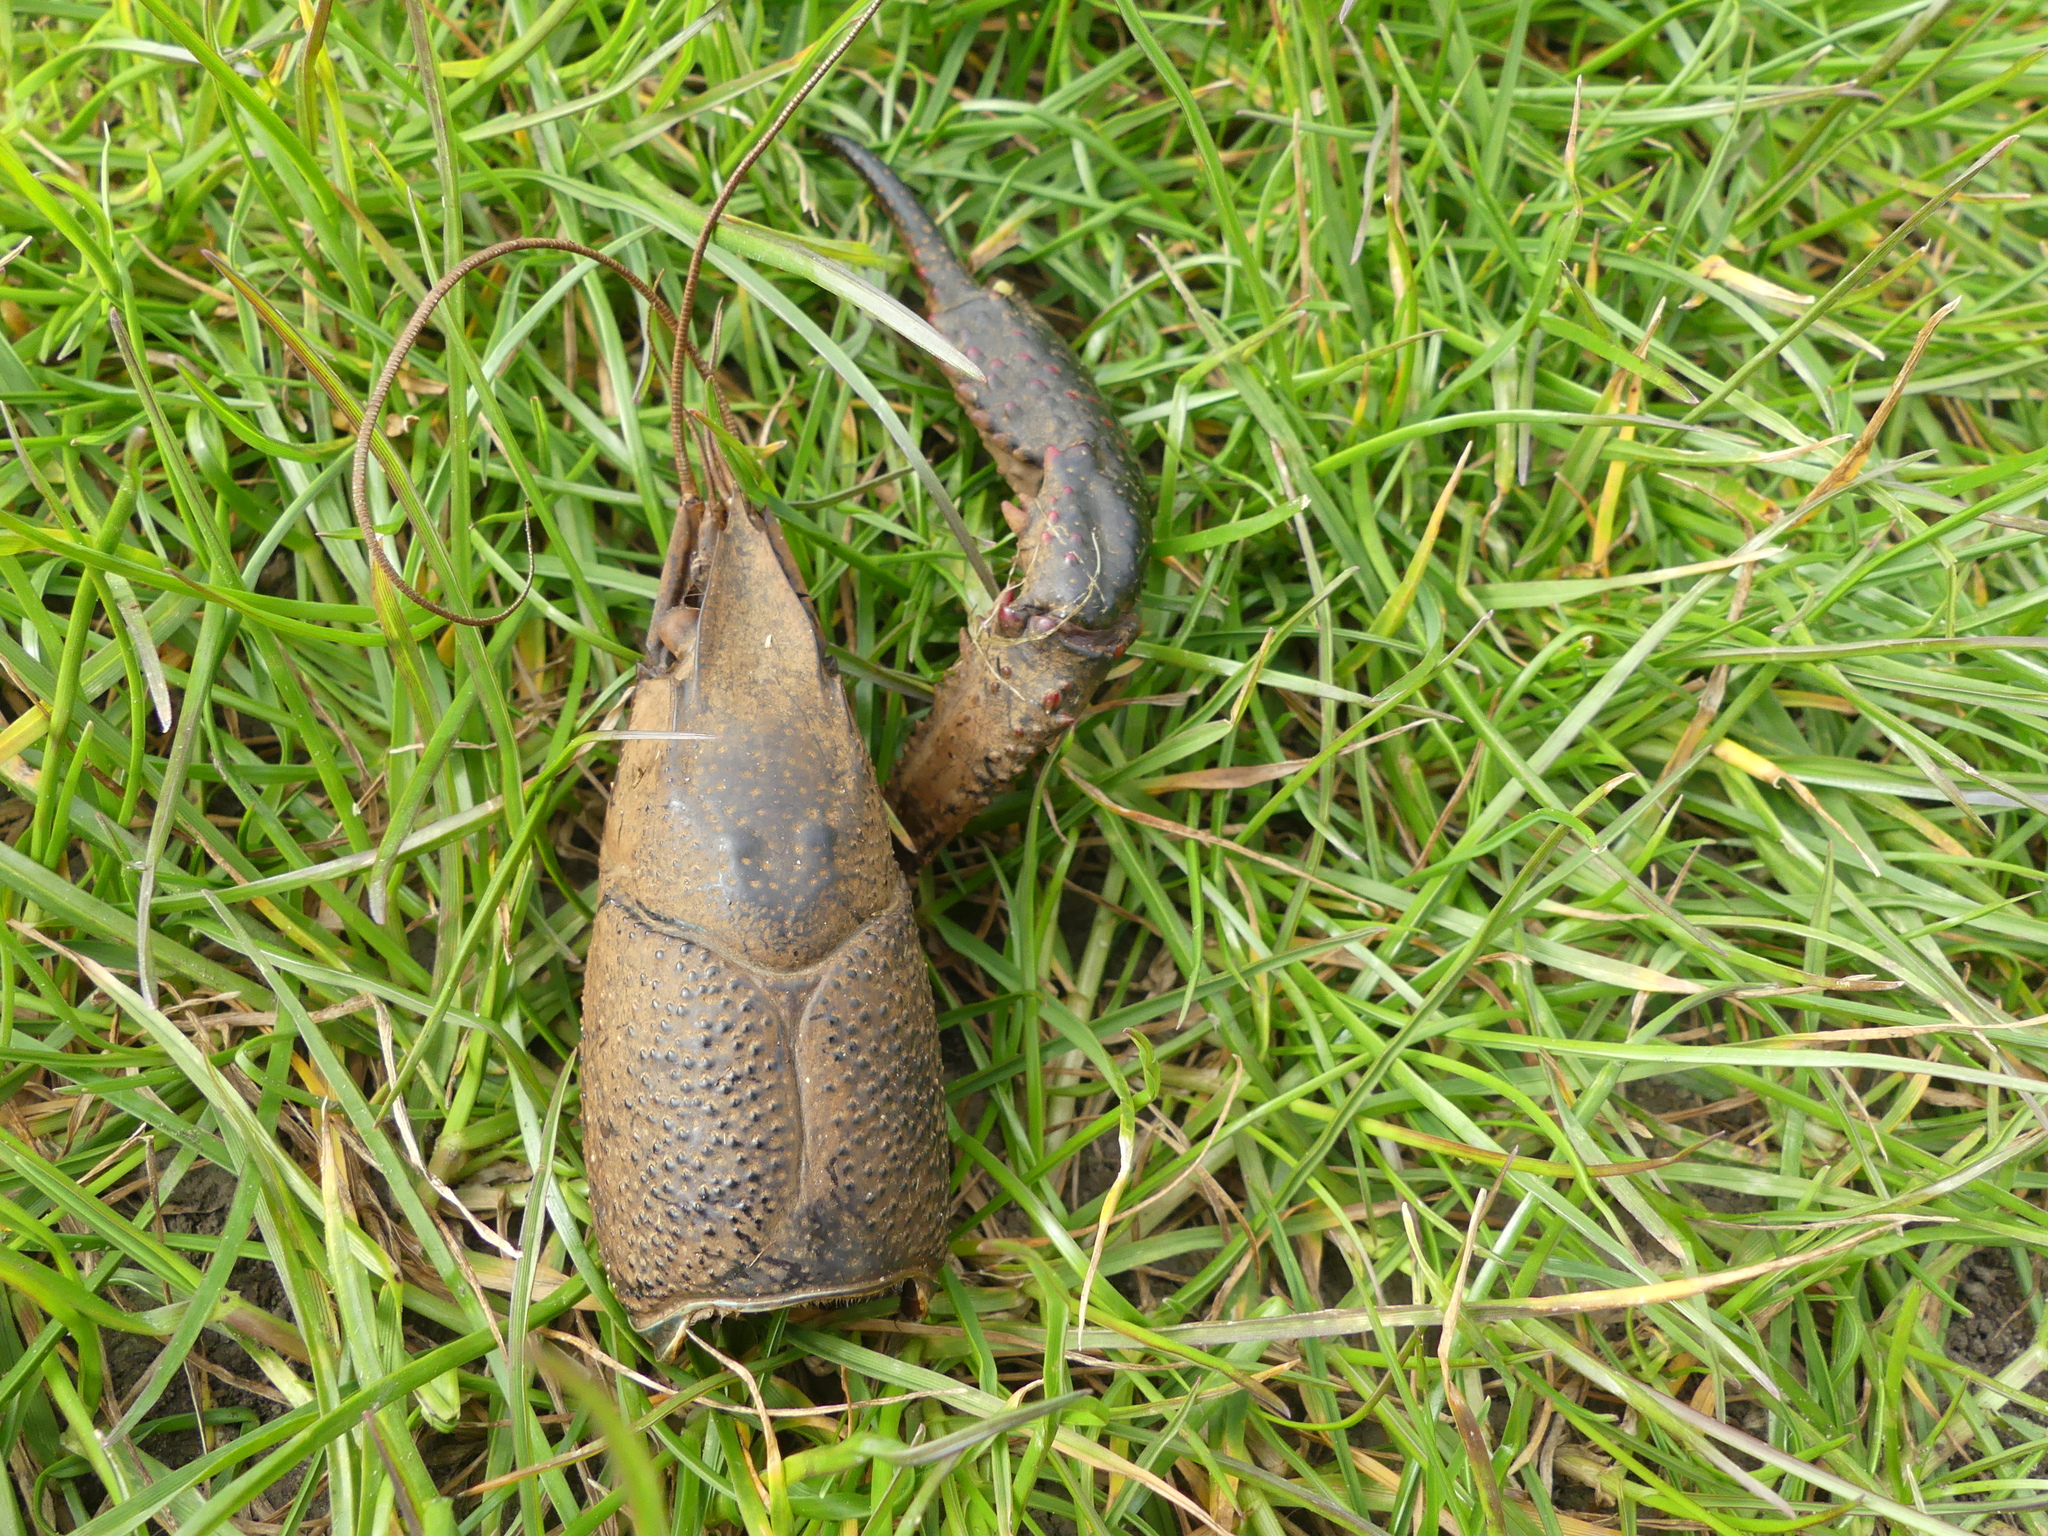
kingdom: Animalia
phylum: Arthropoda
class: Malacostraca
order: Decapoda
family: Cambaridae
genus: Procambarus
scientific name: Procambarus clarkii
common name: Red swamp crayfish
